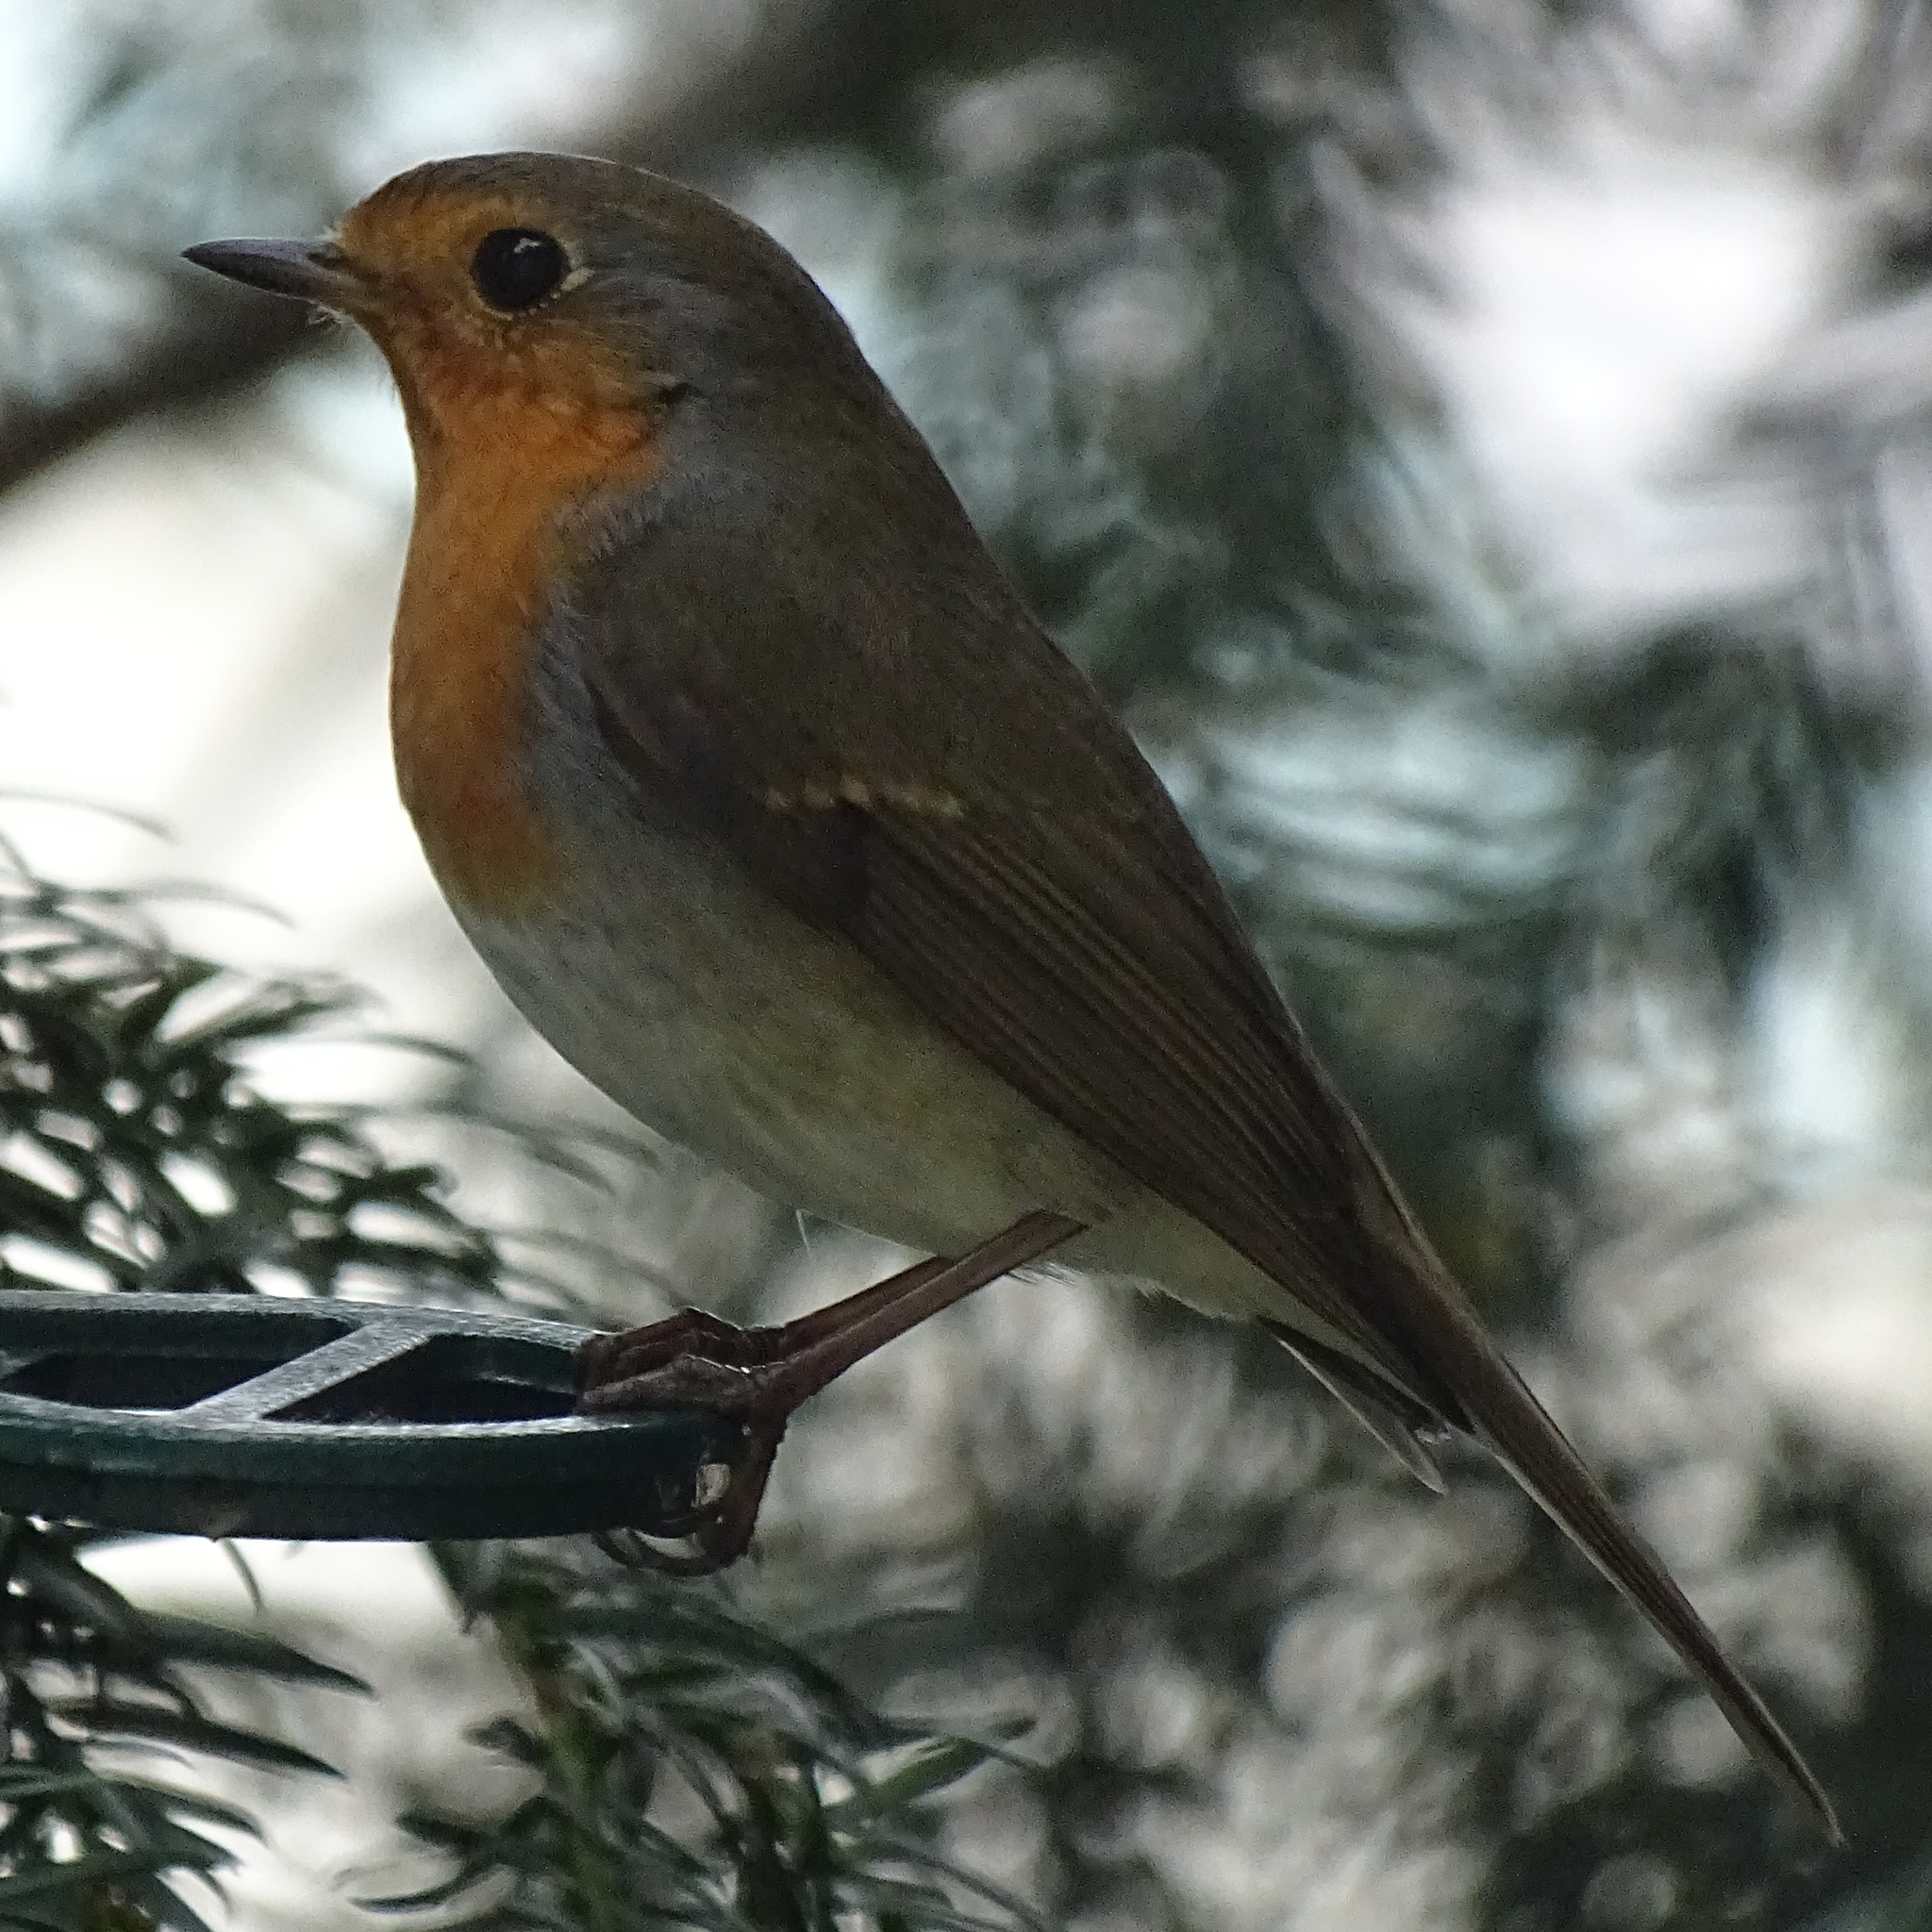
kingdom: Animalia
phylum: Chordata
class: Aves
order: Passeriformes
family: Muscicapidae
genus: Erithacus
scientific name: Erithacus rubecula
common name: European robin
